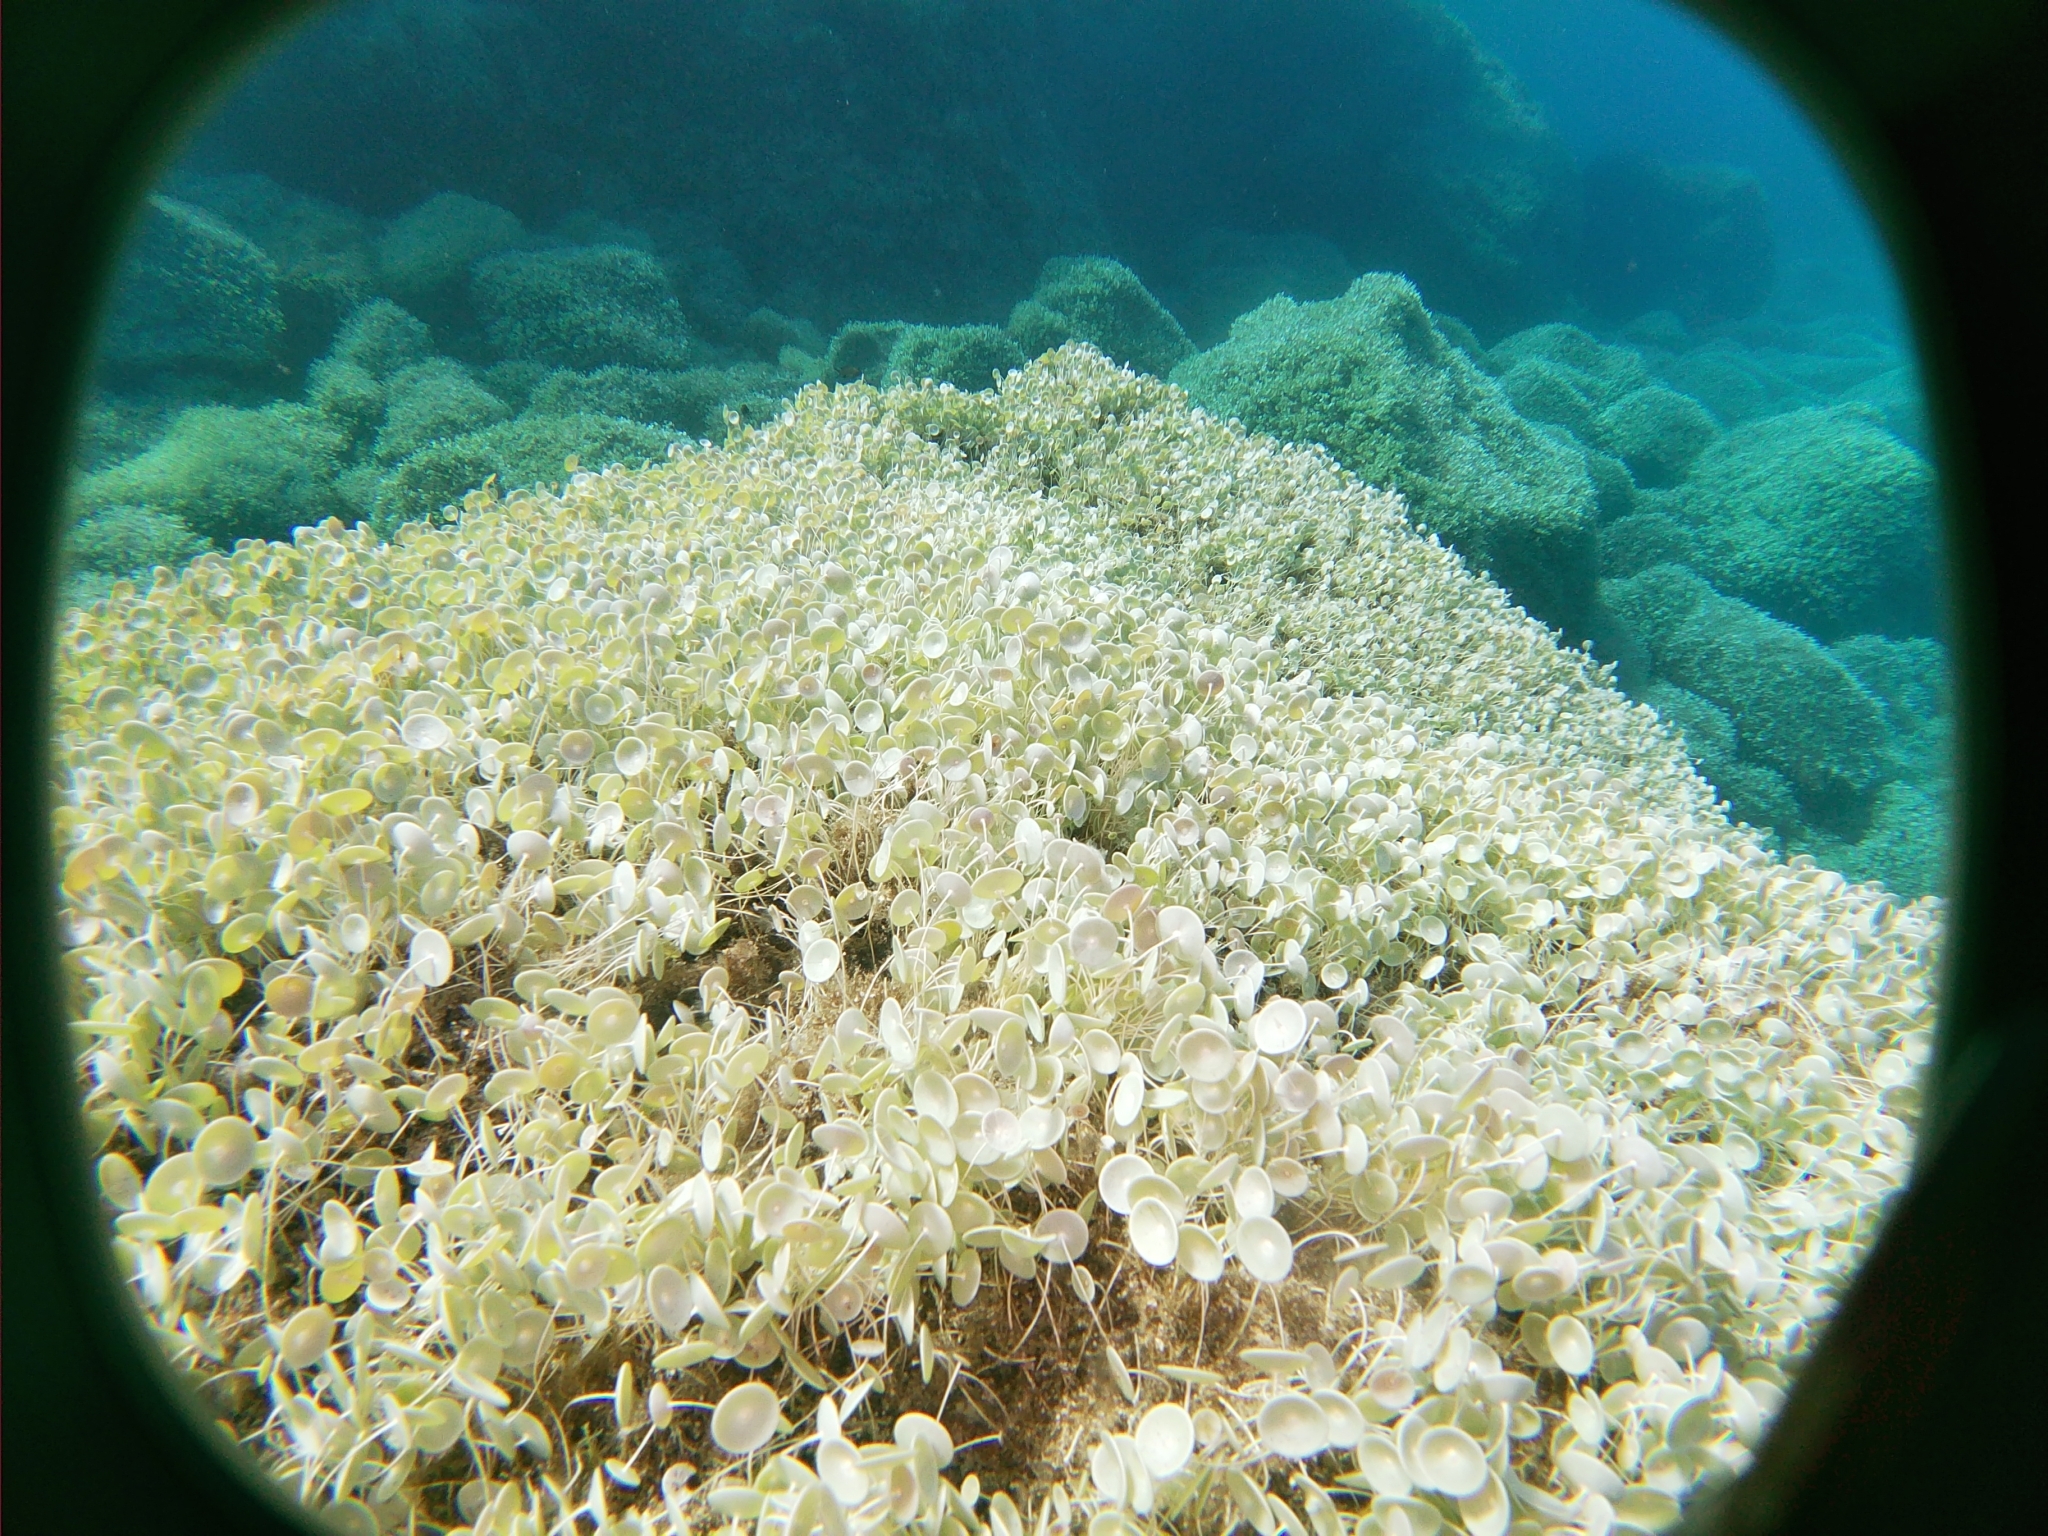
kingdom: Plantae
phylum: Chlorophyta
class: Ulvophyceae
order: Dasycladales
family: Polyphysaceae
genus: Acetabularia
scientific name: Acetabularia acetabulum
